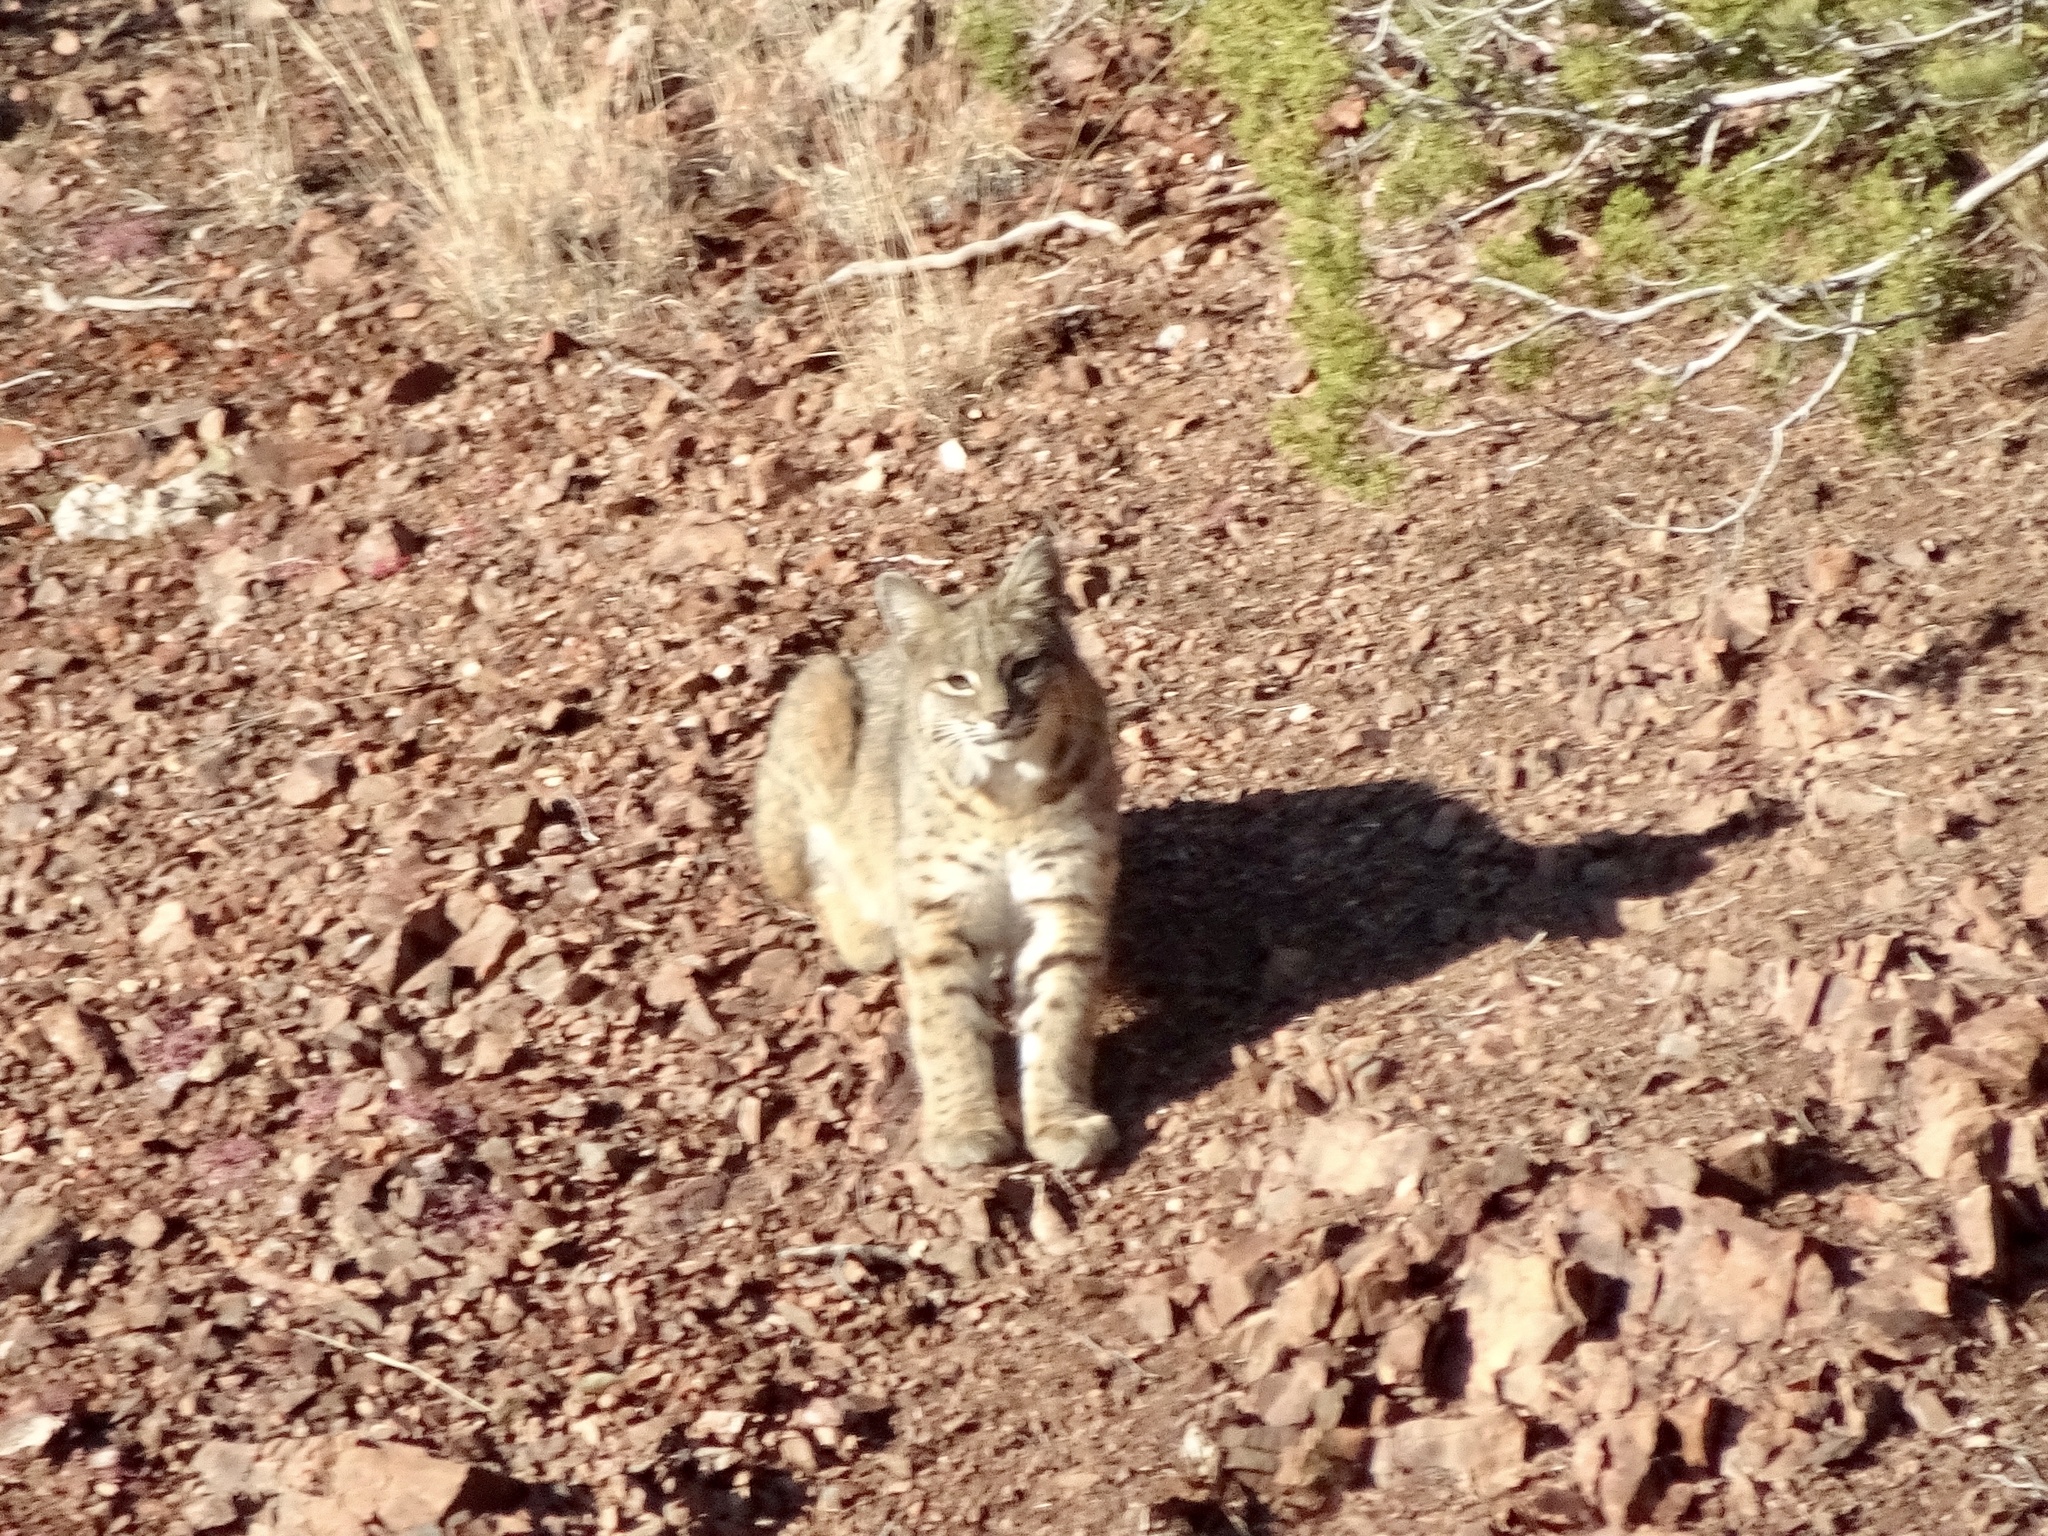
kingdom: Animalia
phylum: Chordata
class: Mammalia
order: Carnivora
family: Felidae
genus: Lynx
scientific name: Lynx rufus
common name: Bobcat
